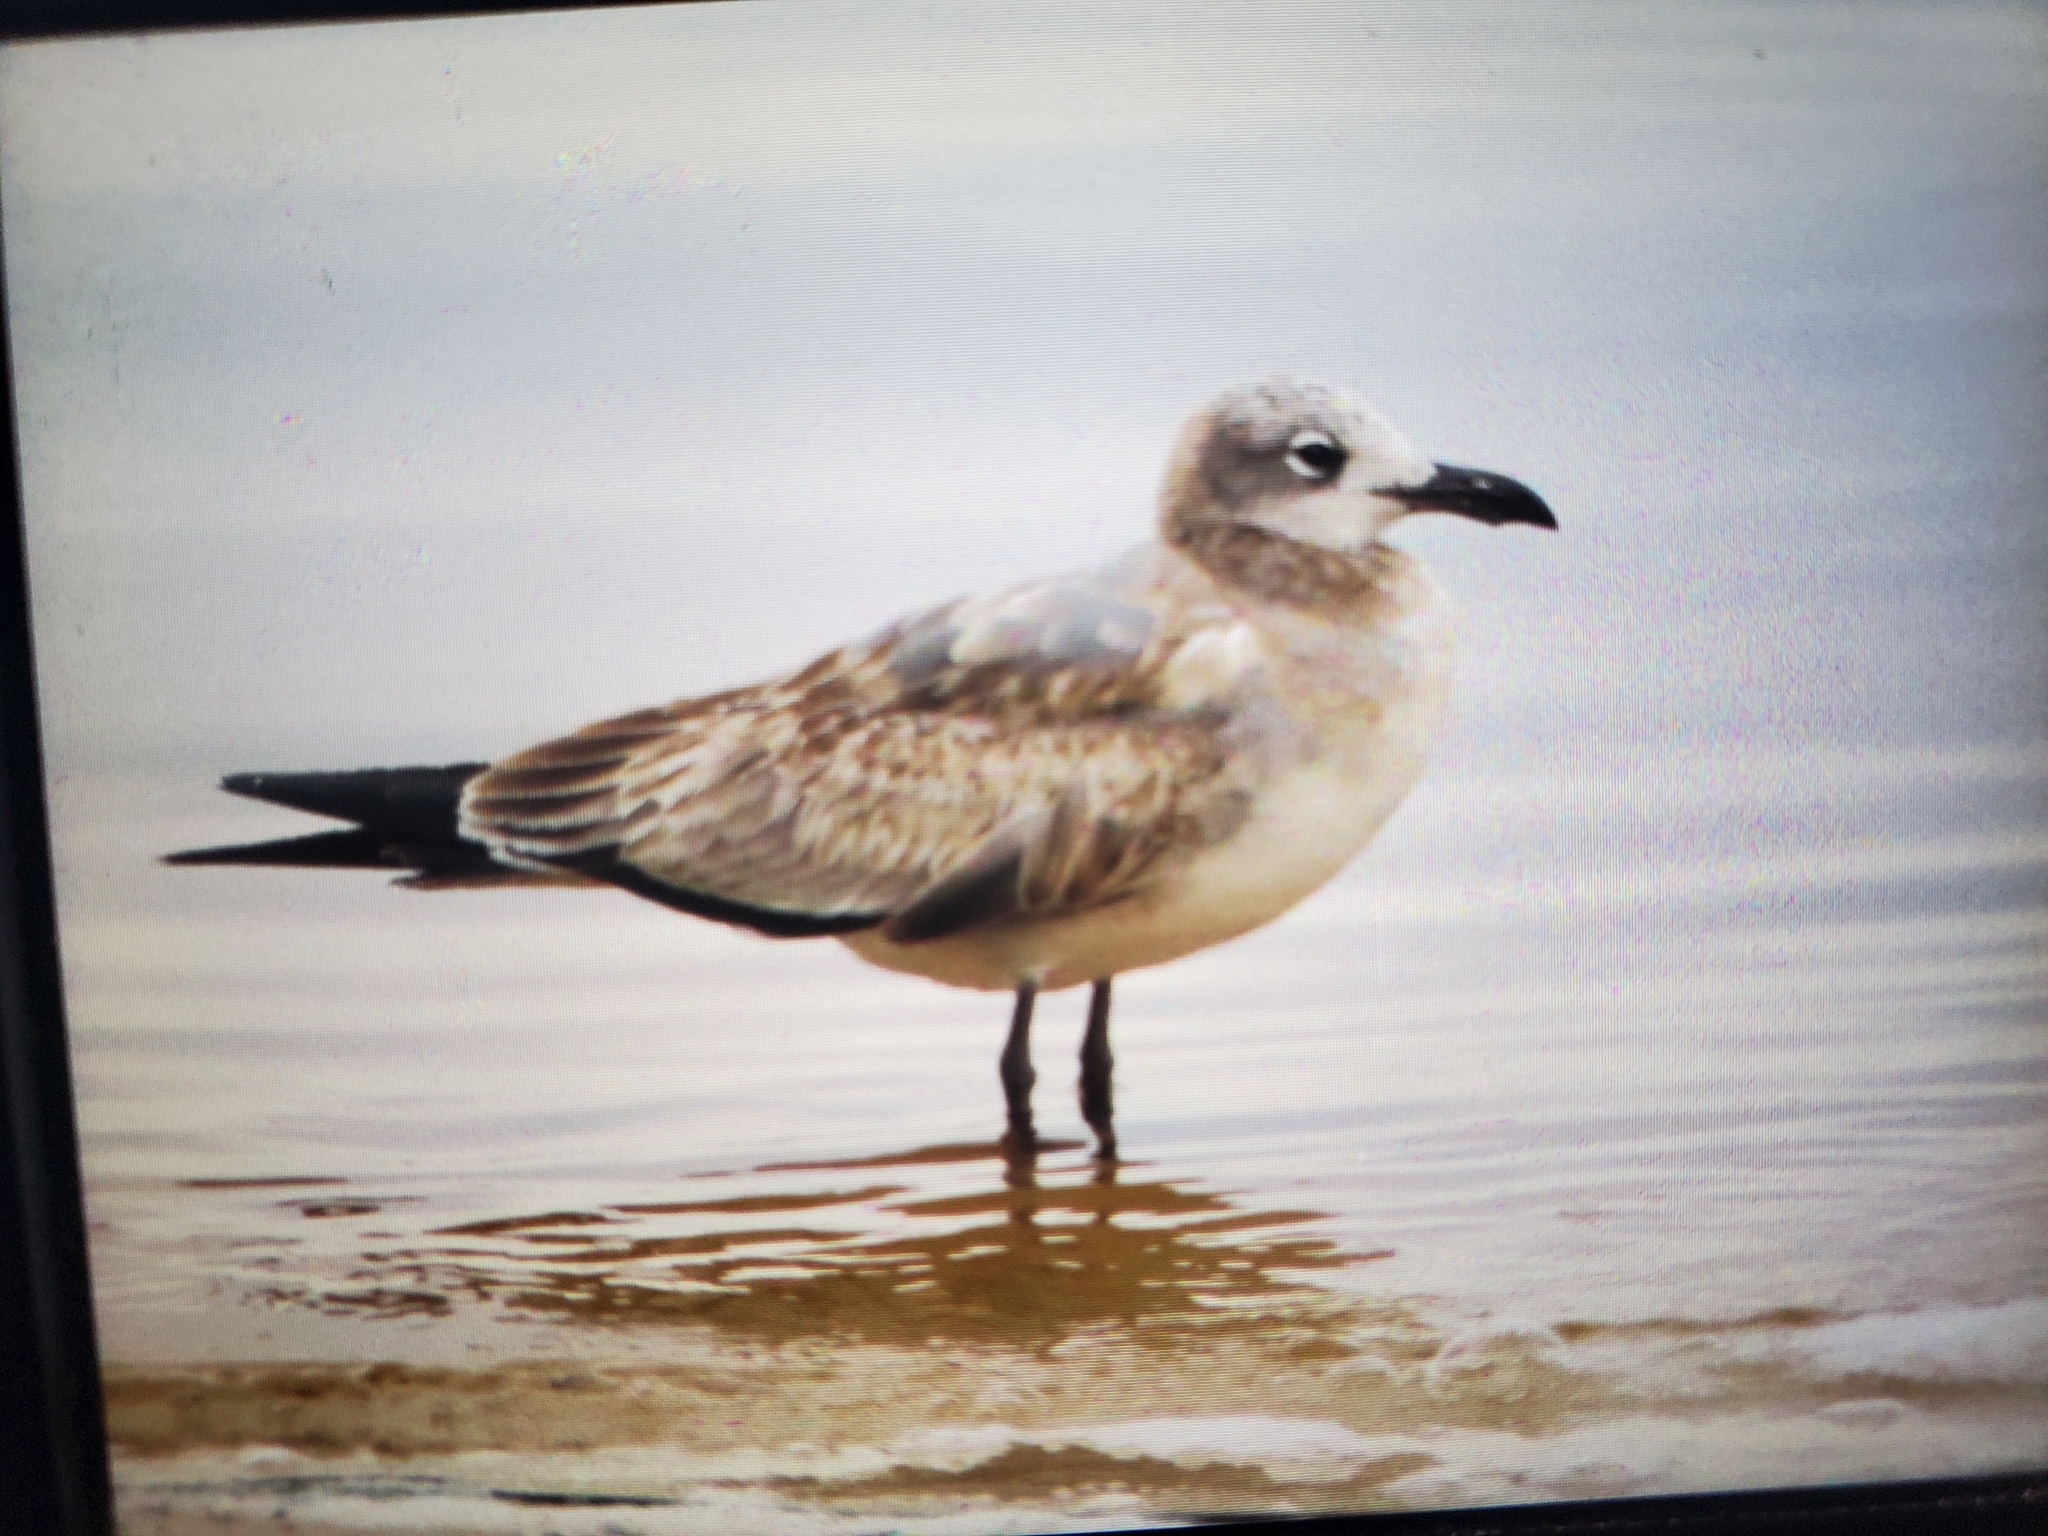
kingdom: Animalia
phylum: Chordata
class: Aves
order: Charadriiformes
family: Laridae
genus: Leucophaeus
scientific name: Leucophaeus atricilla
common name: Laughing gull
